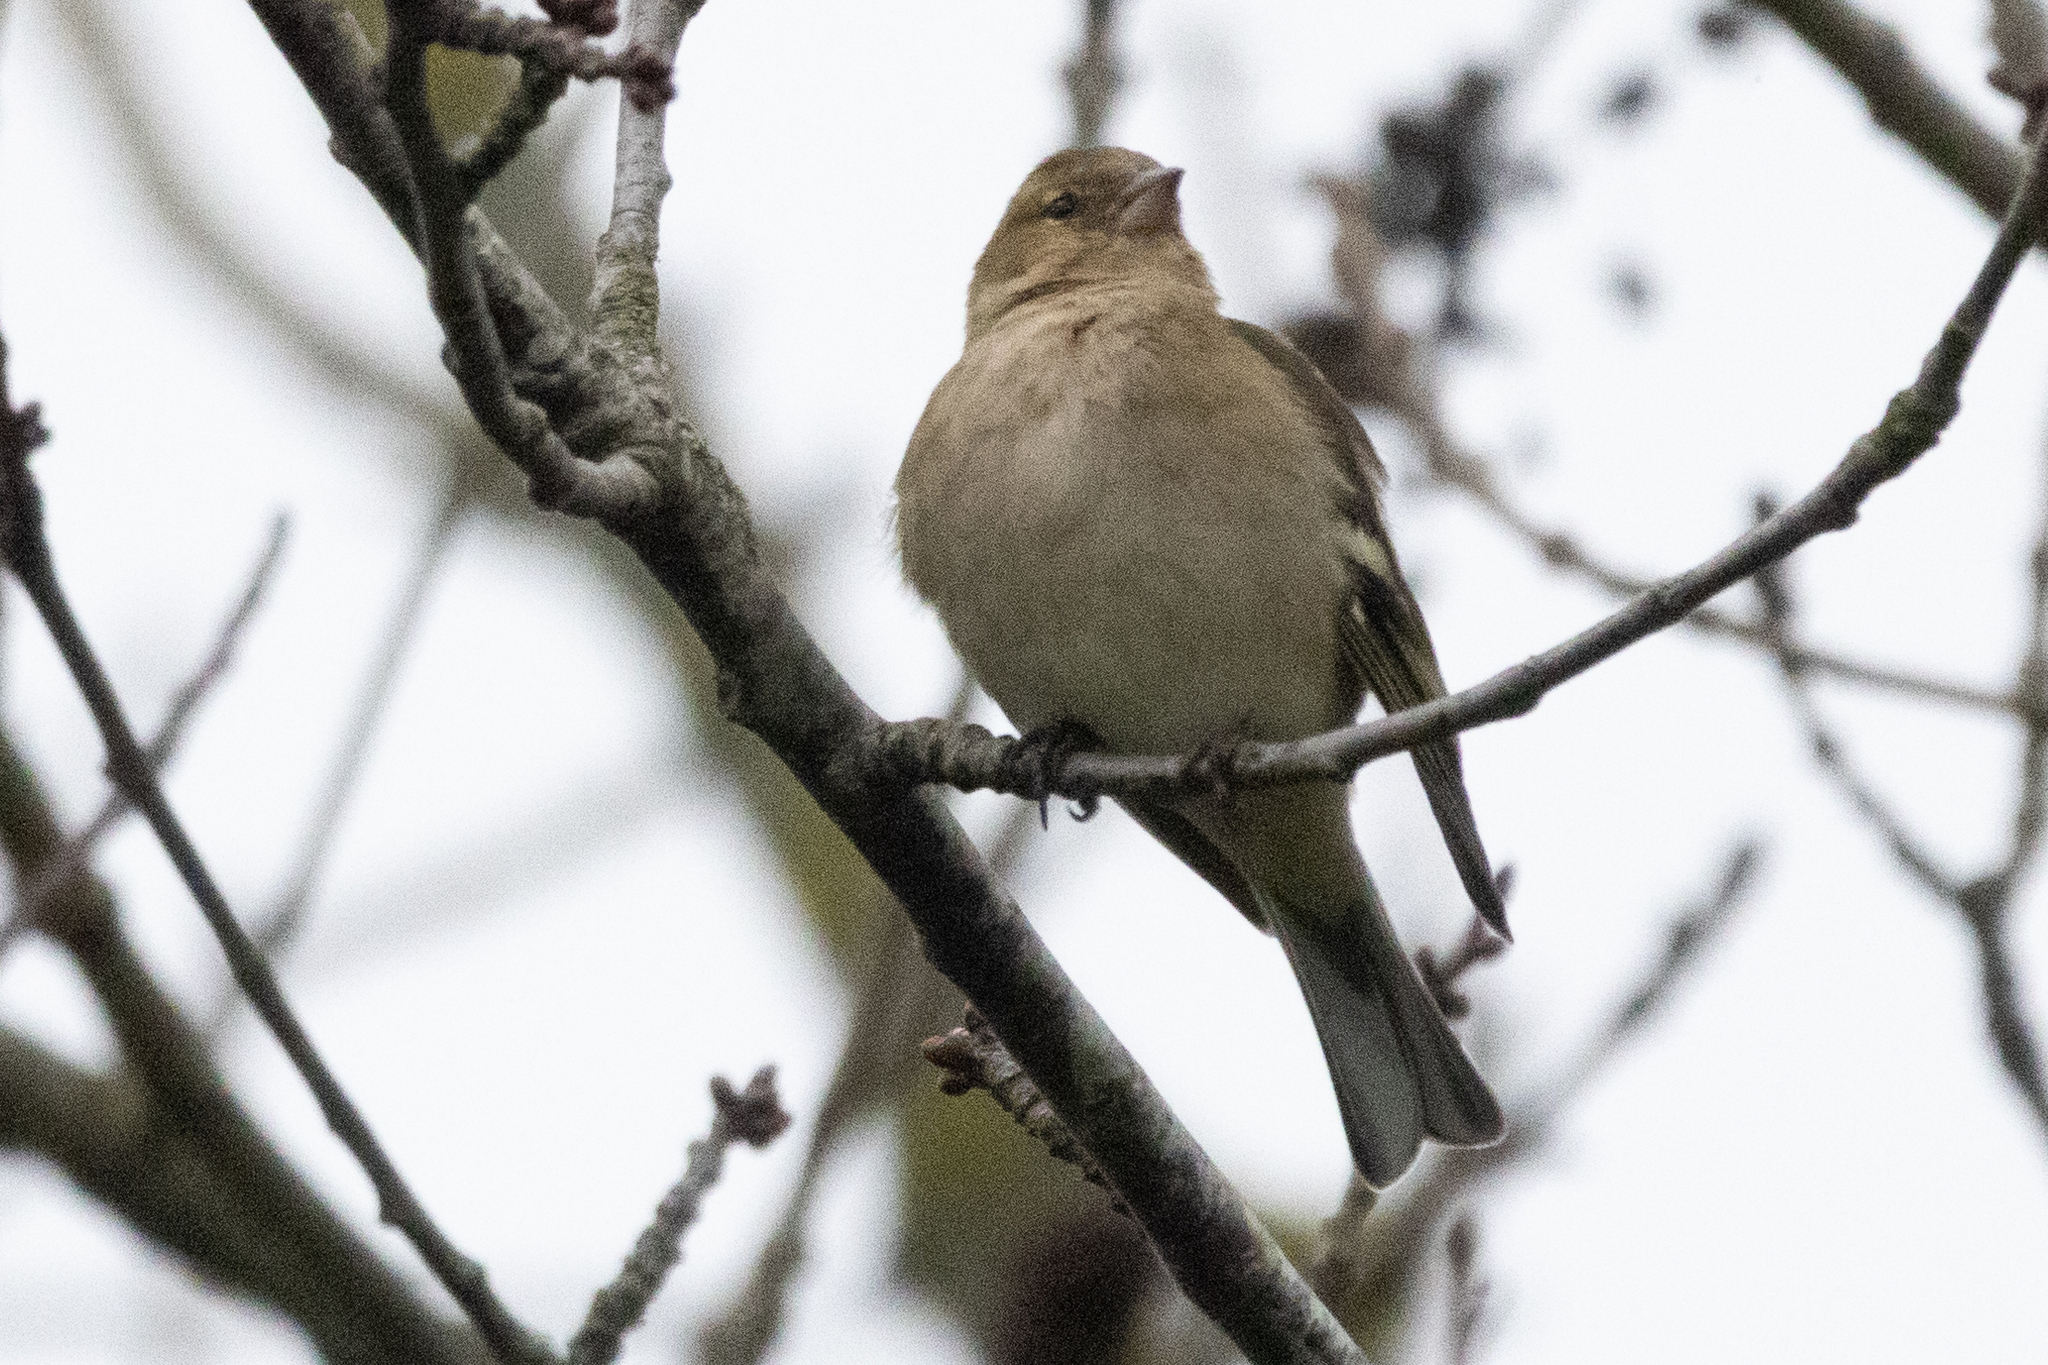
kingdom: Animalia
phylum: Chordata
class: Aves
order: Passeriformes
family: Fringillidae
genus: Fringilla
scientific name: Fringilla coelebs
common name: Common chaffinch
